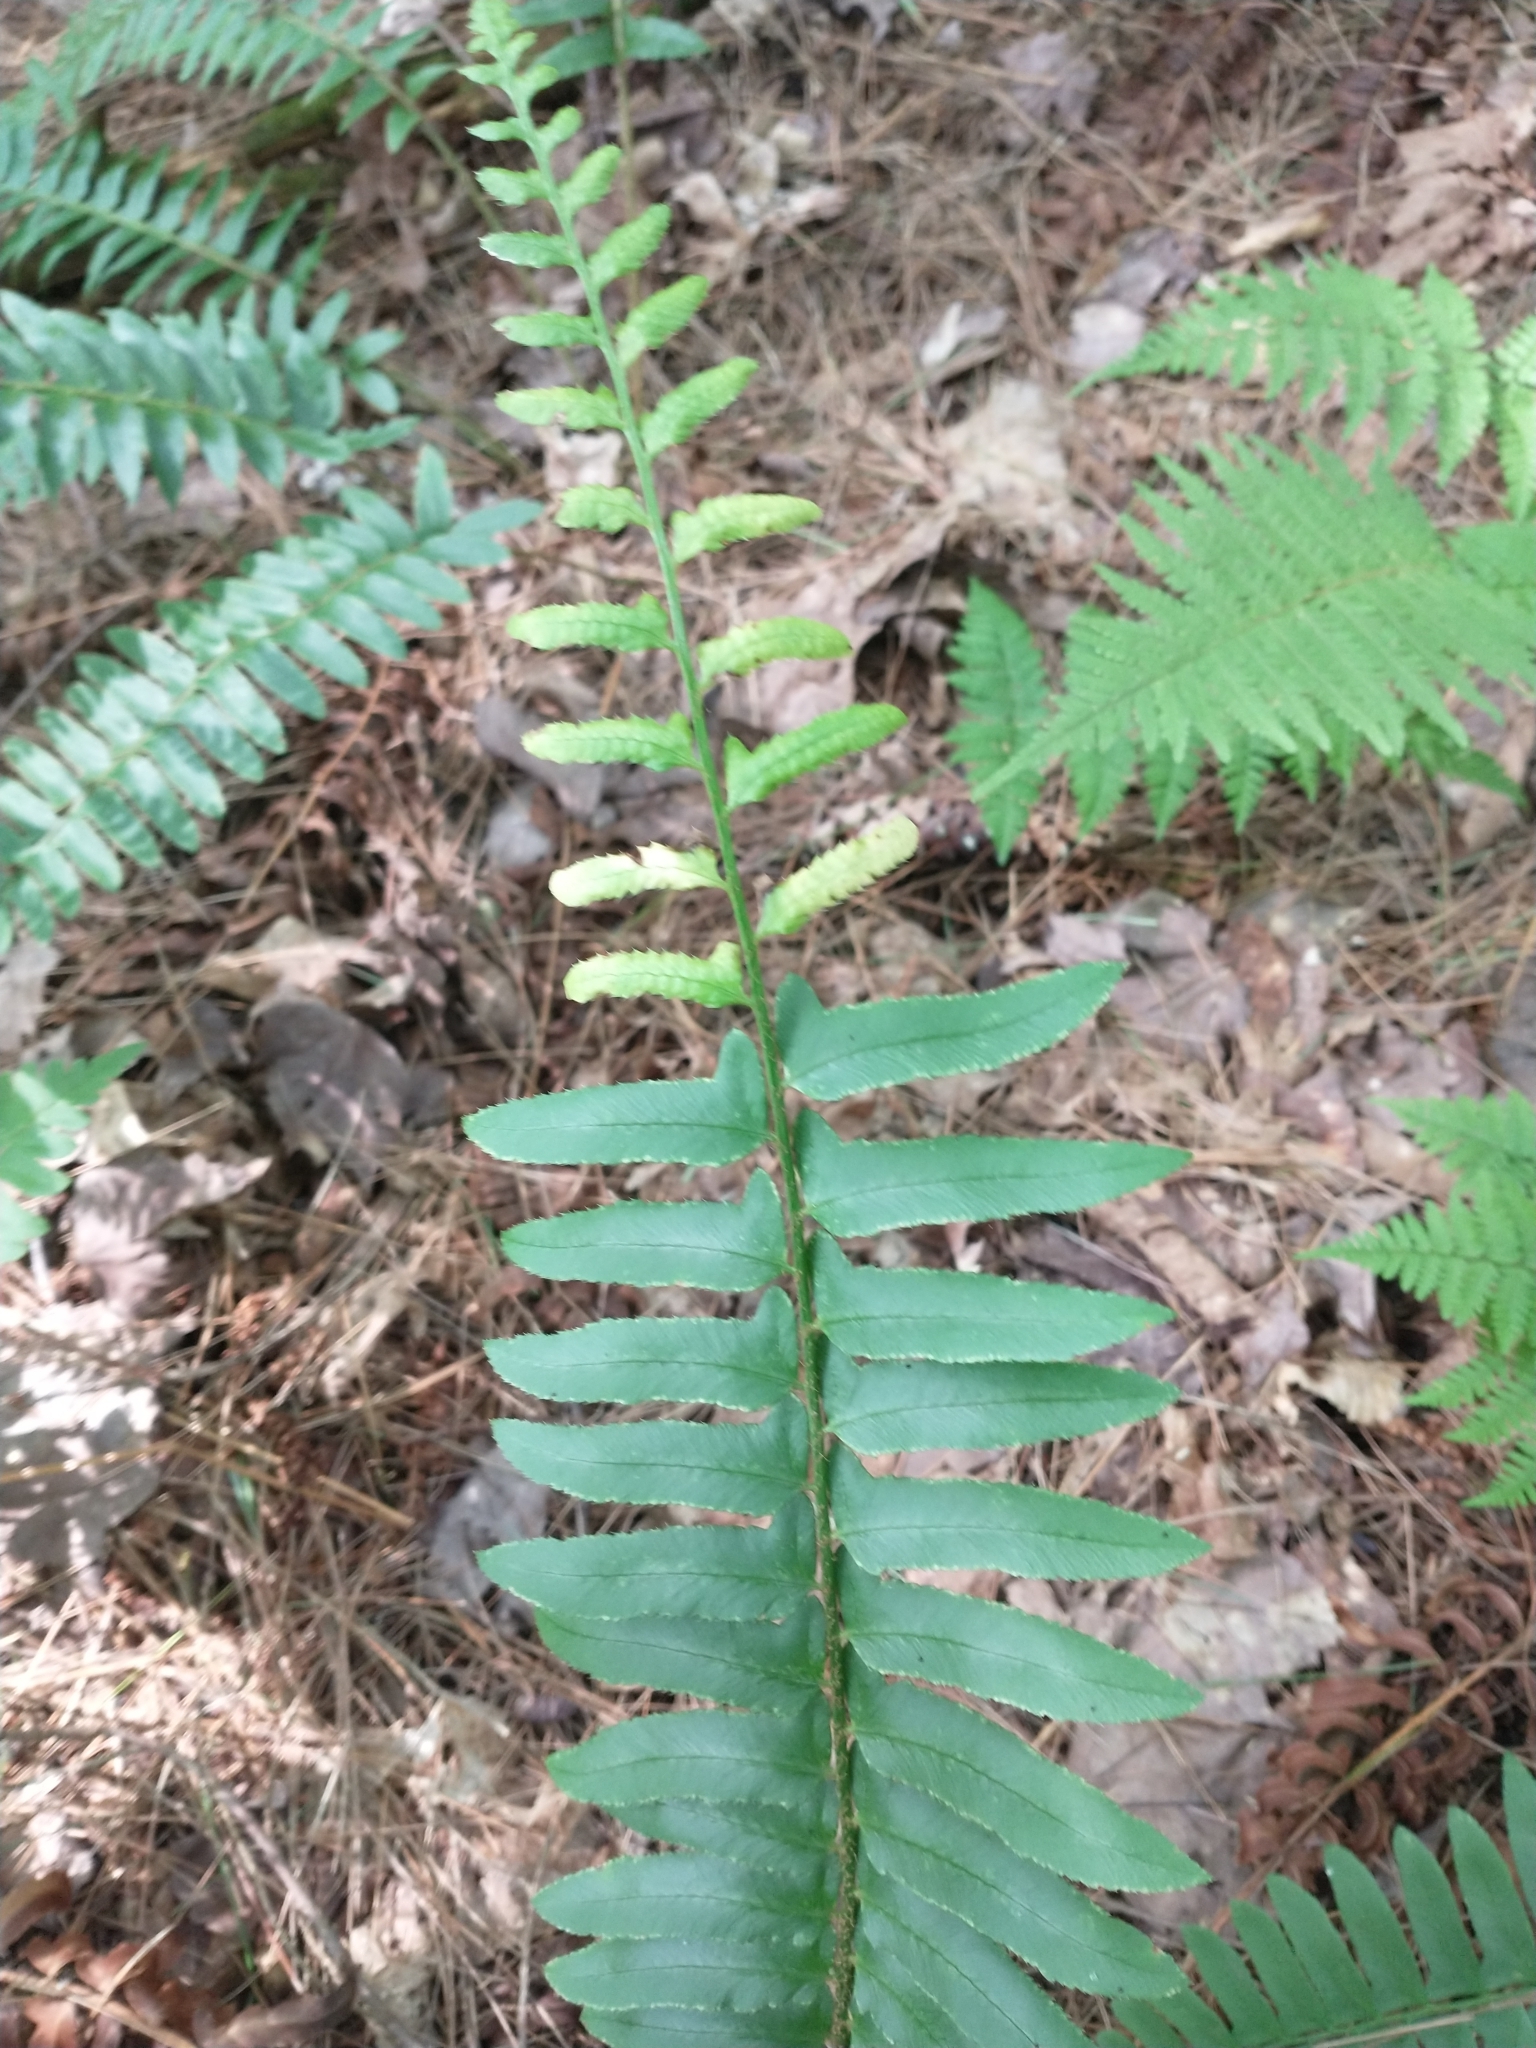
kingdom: Plantae
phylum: Tracheophyta
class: Polypodiopsida
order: Polypodiales
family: Dryopteridaceae
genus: Polystichum
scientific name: Polystichum acrostichoides
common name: Christmas fern
